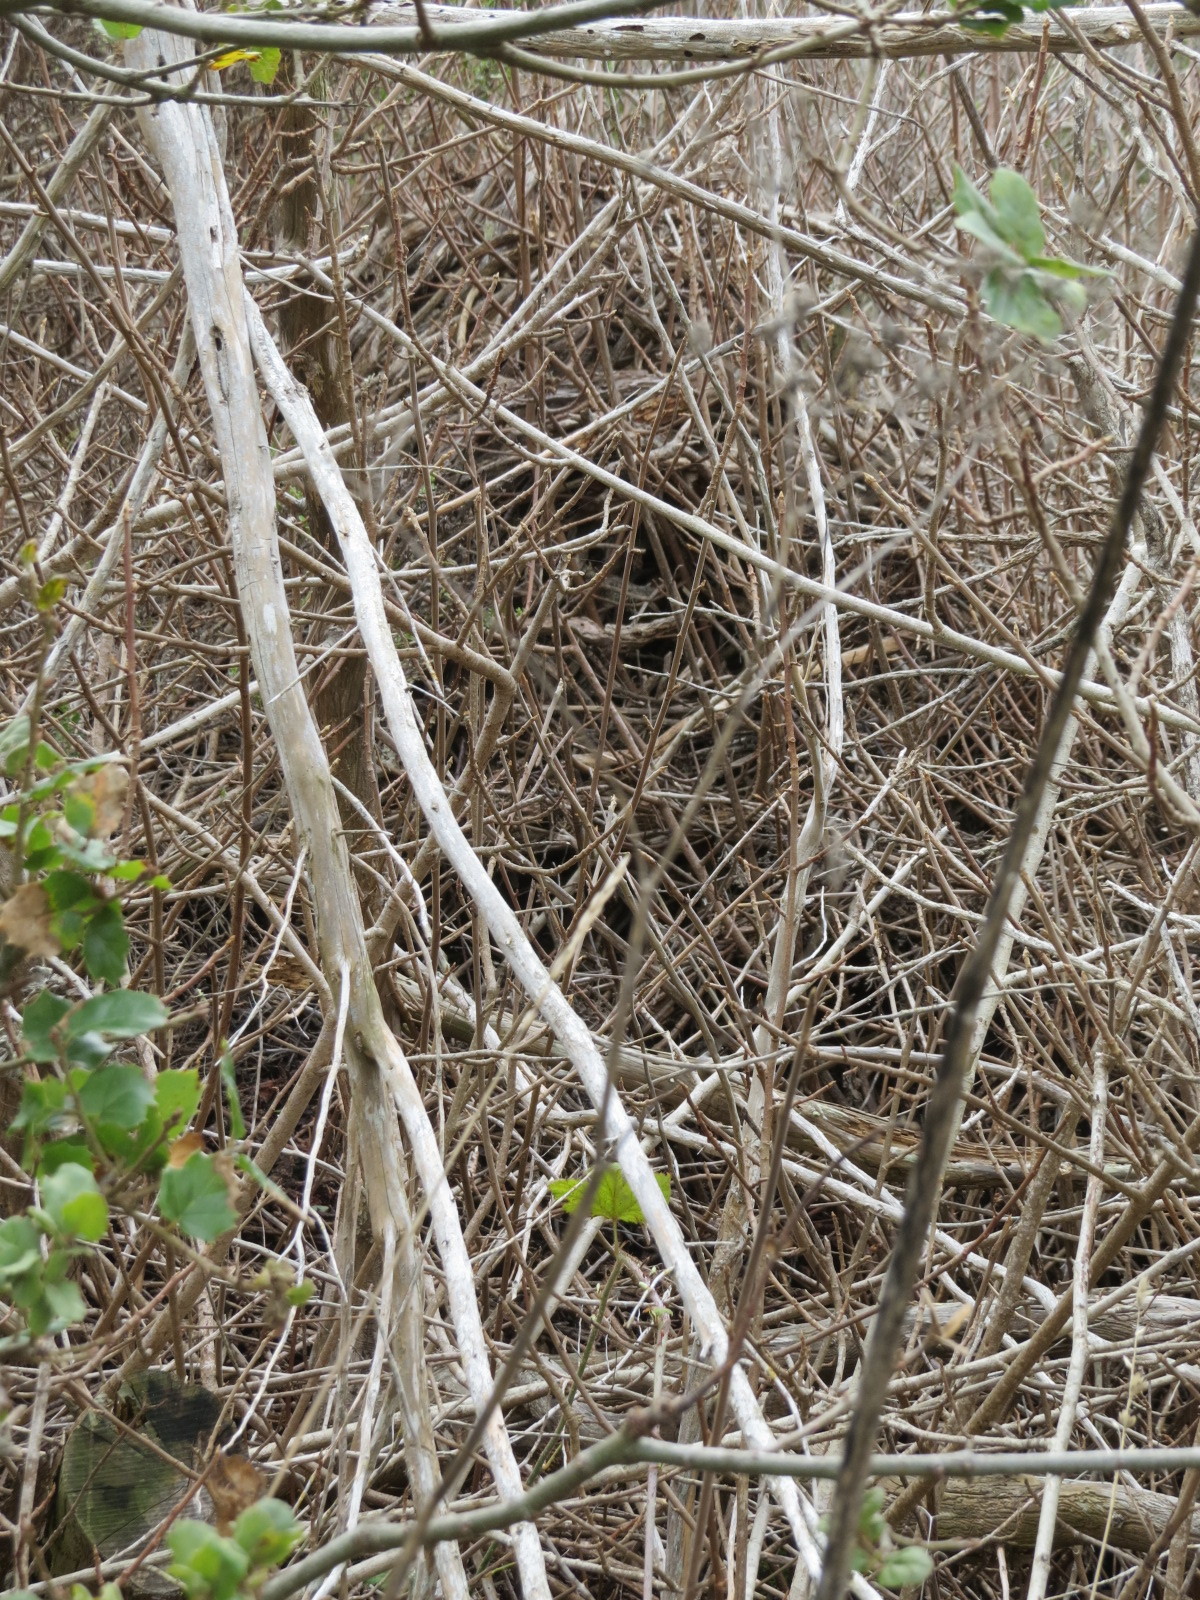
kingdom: Animalia
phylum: Chordata
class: Mammalia
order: Rodentia
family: Cricetidae
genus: Neotoma
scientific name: Neotoma fuscipes
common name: Dusky-footed woodrat
